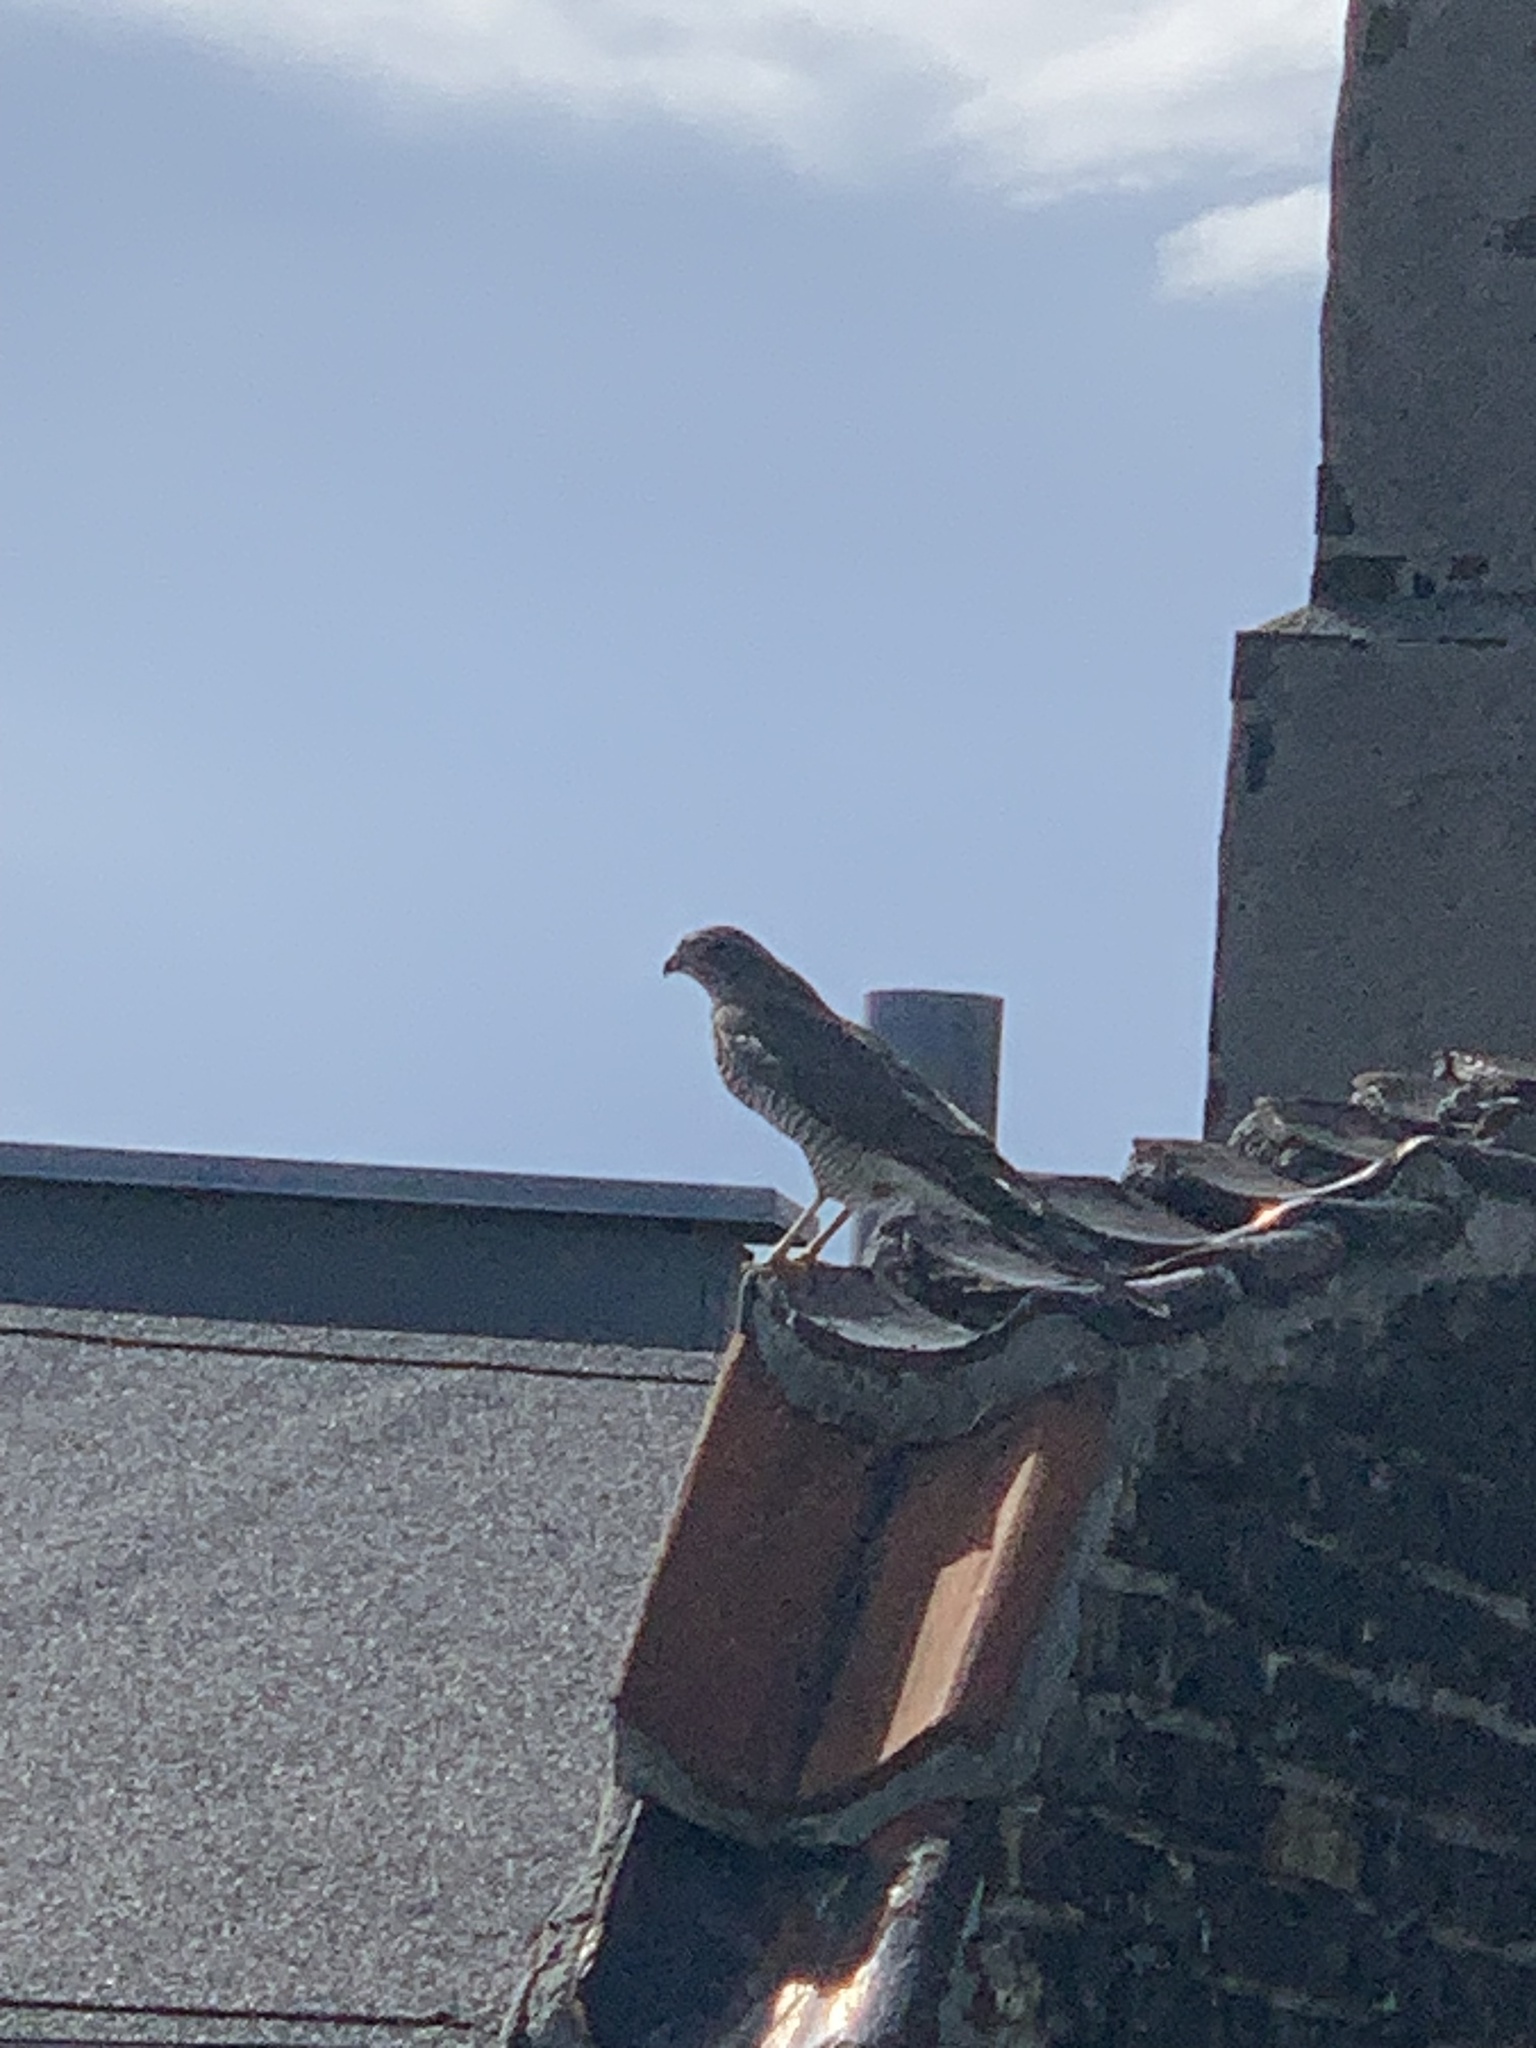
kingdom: Animalia
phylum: Chordata
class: Aves
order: Accipitriformes
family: Accipitridae
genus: Accipiter
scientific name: Accipiter nisus
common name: Eurasian sparrowhawk
